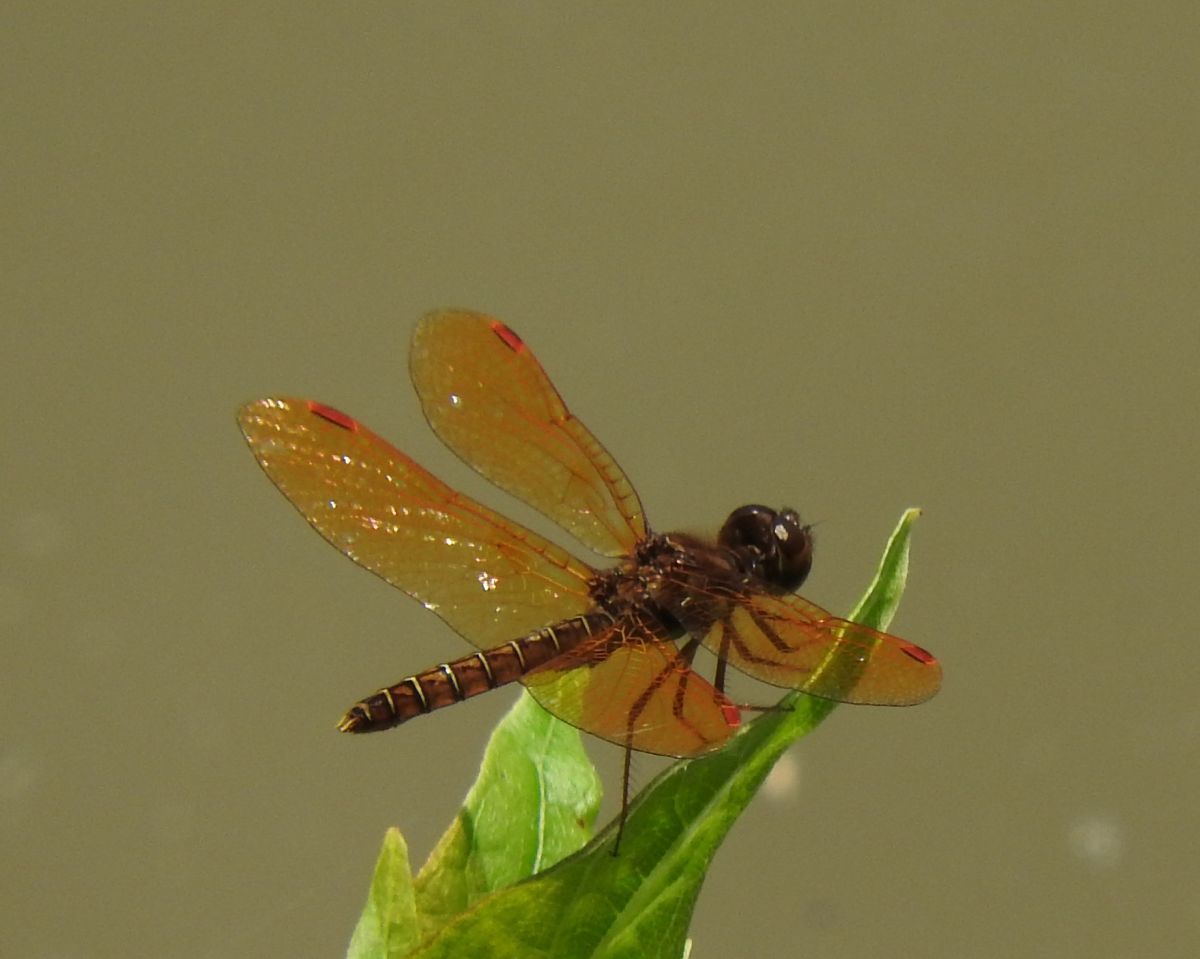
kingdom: Animalia
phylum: Arthropoda
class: Insecta
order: Odonata
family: Libellulidae
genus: Perithemis
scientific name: Perithemis tenera
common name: Eastern amberwing
